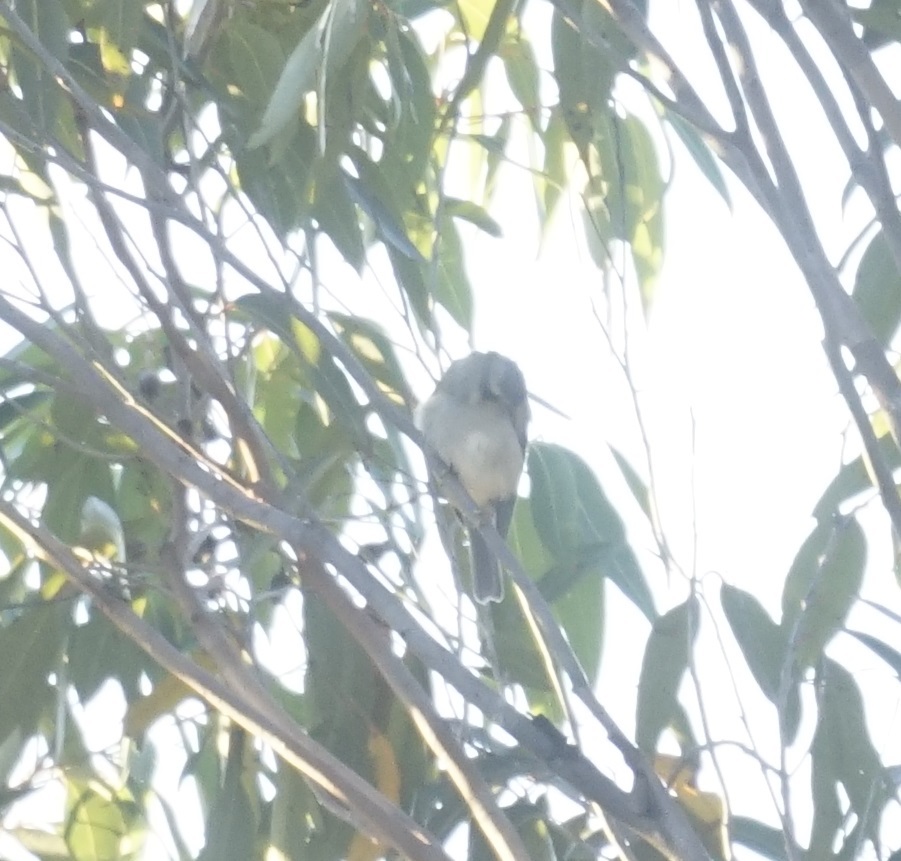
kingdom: Animalia
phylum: Chordata
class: Aves
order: Passeriformes
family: Meliphagidae
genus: Melithreptus
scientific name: Melithreptus brevirostris
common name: Brown-headed honeyeater
